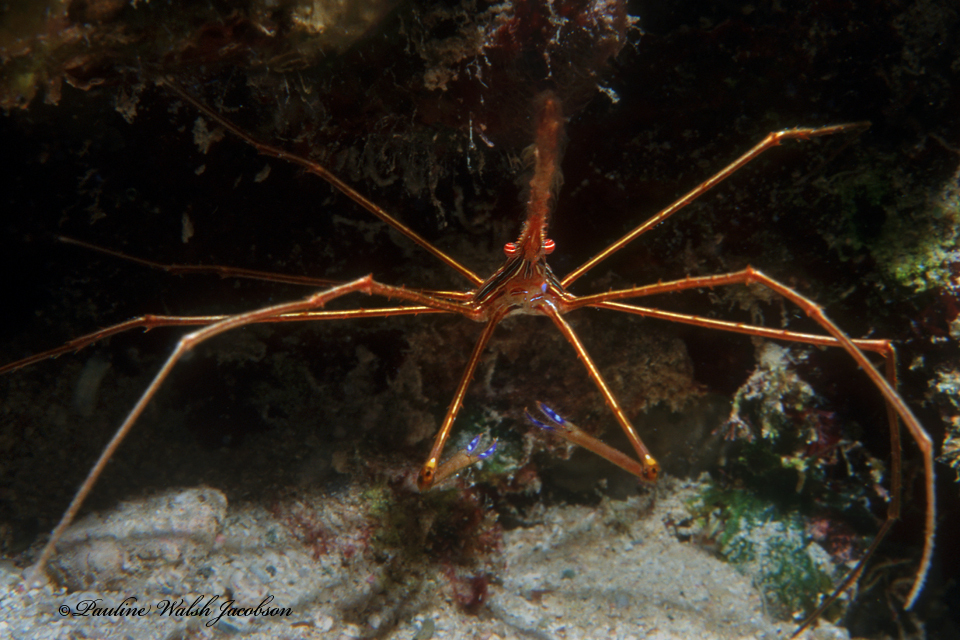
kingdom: Animalia
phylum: Arthropoda
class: Malacostraca
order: Decapoda
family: Inachoididae
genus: Stenorhynchus
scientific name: Stenorhynchus seticornis
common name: Arrow crab
